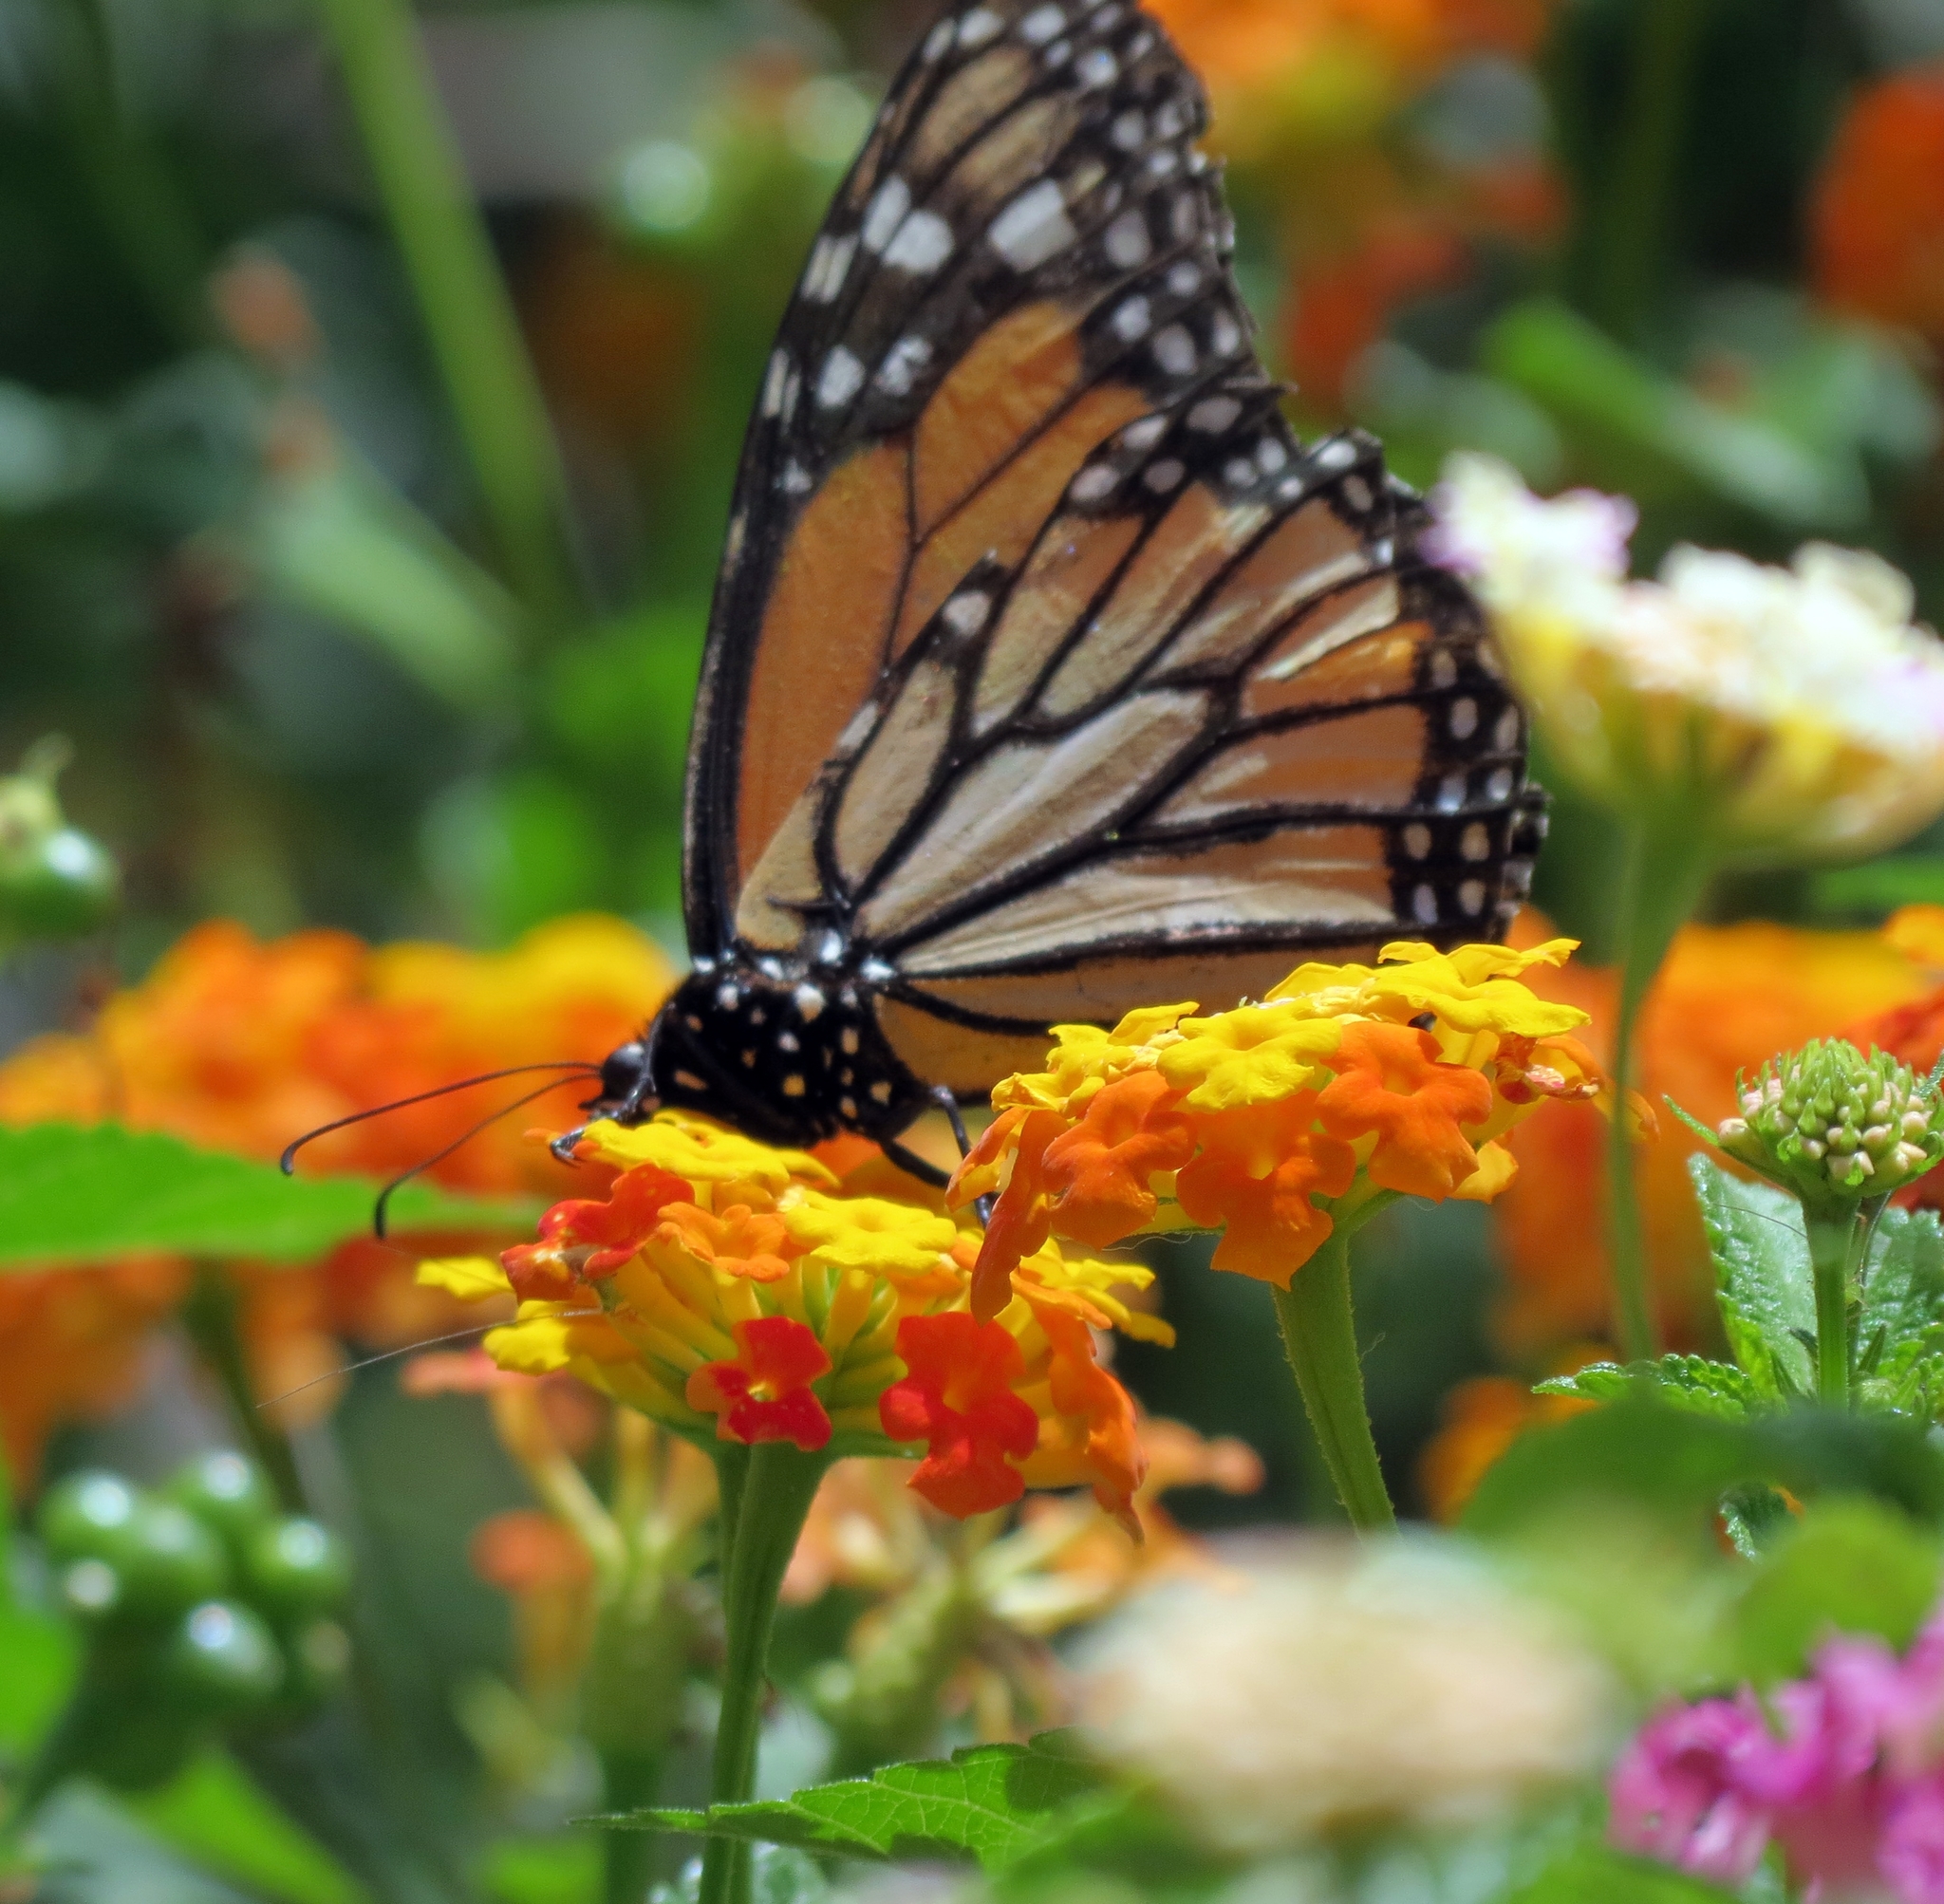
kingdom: Animalia
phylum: Arthropoda
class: Insecta
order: Lepidoptera
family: Nymphalidae
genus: Danaus
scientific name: Danaus plexippus
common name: Monarch
